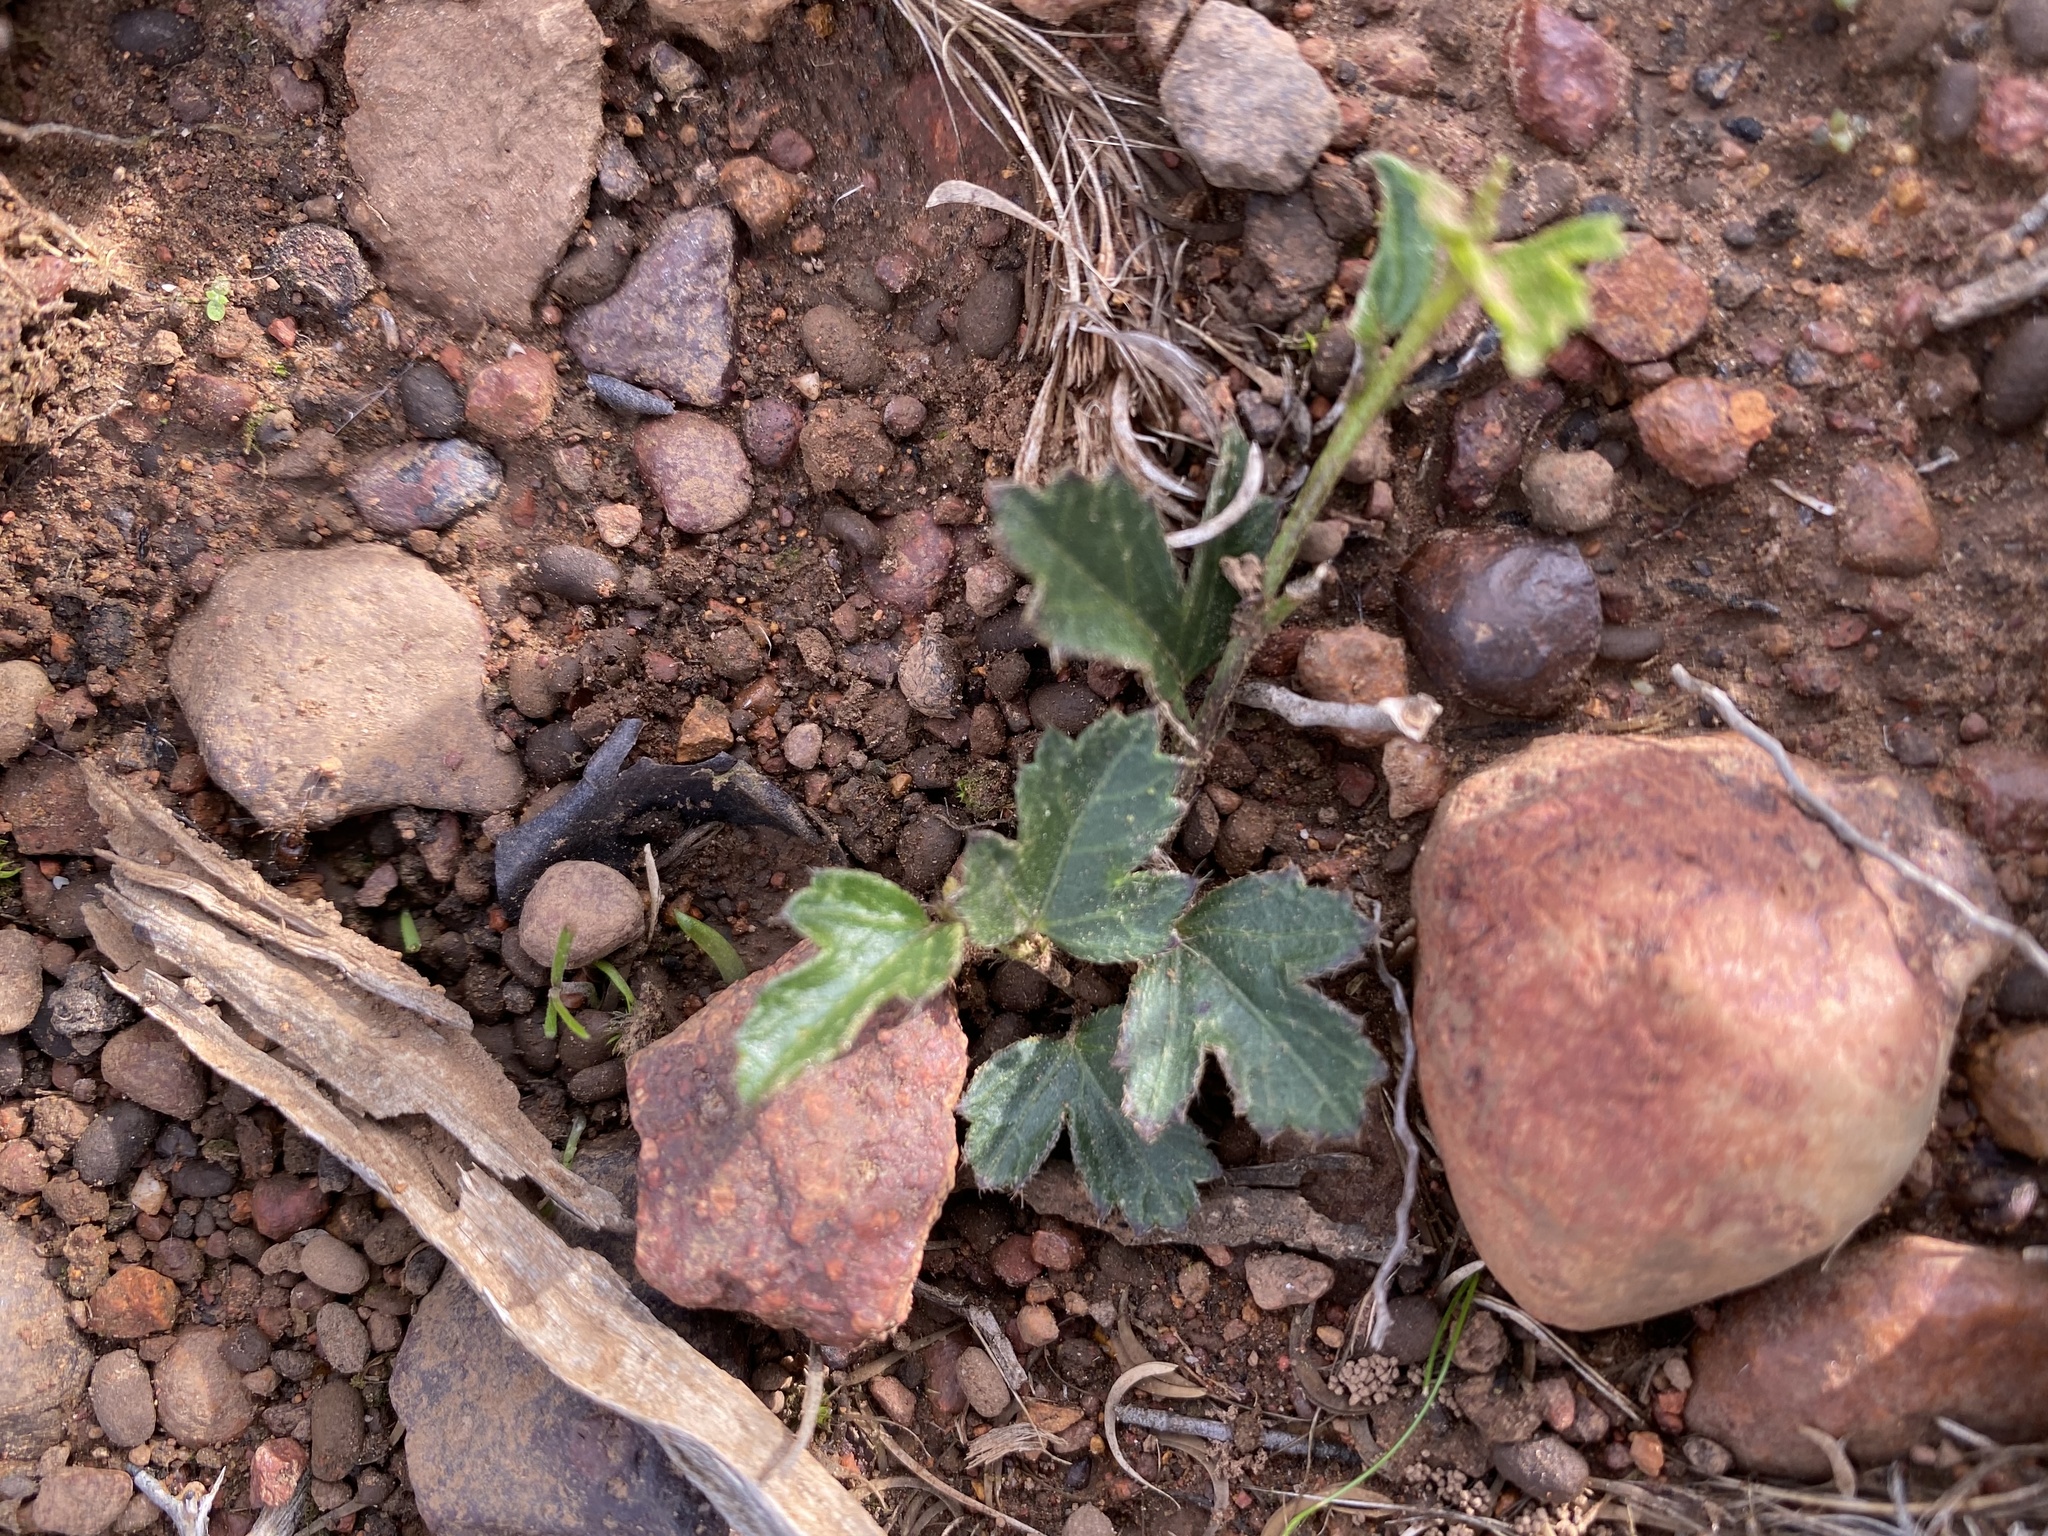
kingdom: Plantae
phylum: Tracheophyta
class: Magnoliopsida
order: Malvales
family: Malvaceae
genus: Hibiscus
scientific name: Hibiscus pusillus
